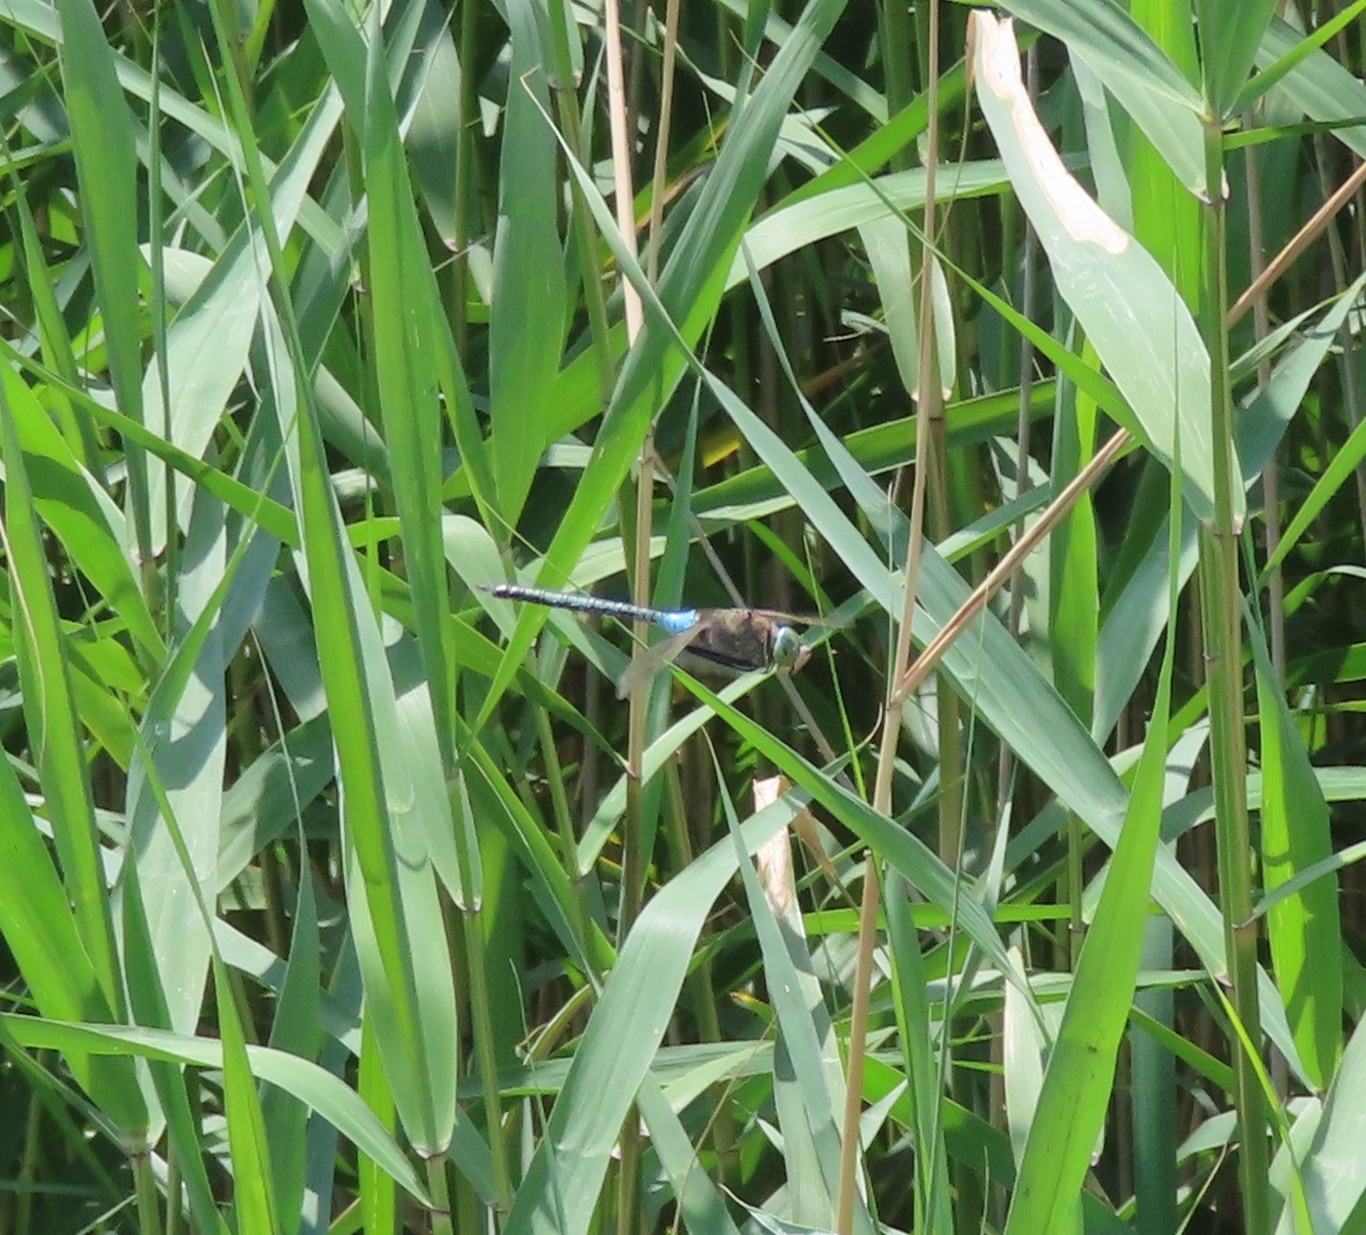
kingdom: Animalia
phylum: Arthropoda
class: Insecta
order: Odonata
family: Aeshnidae
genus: Anax
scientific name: Anax parthenope
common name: Lesser emperor
